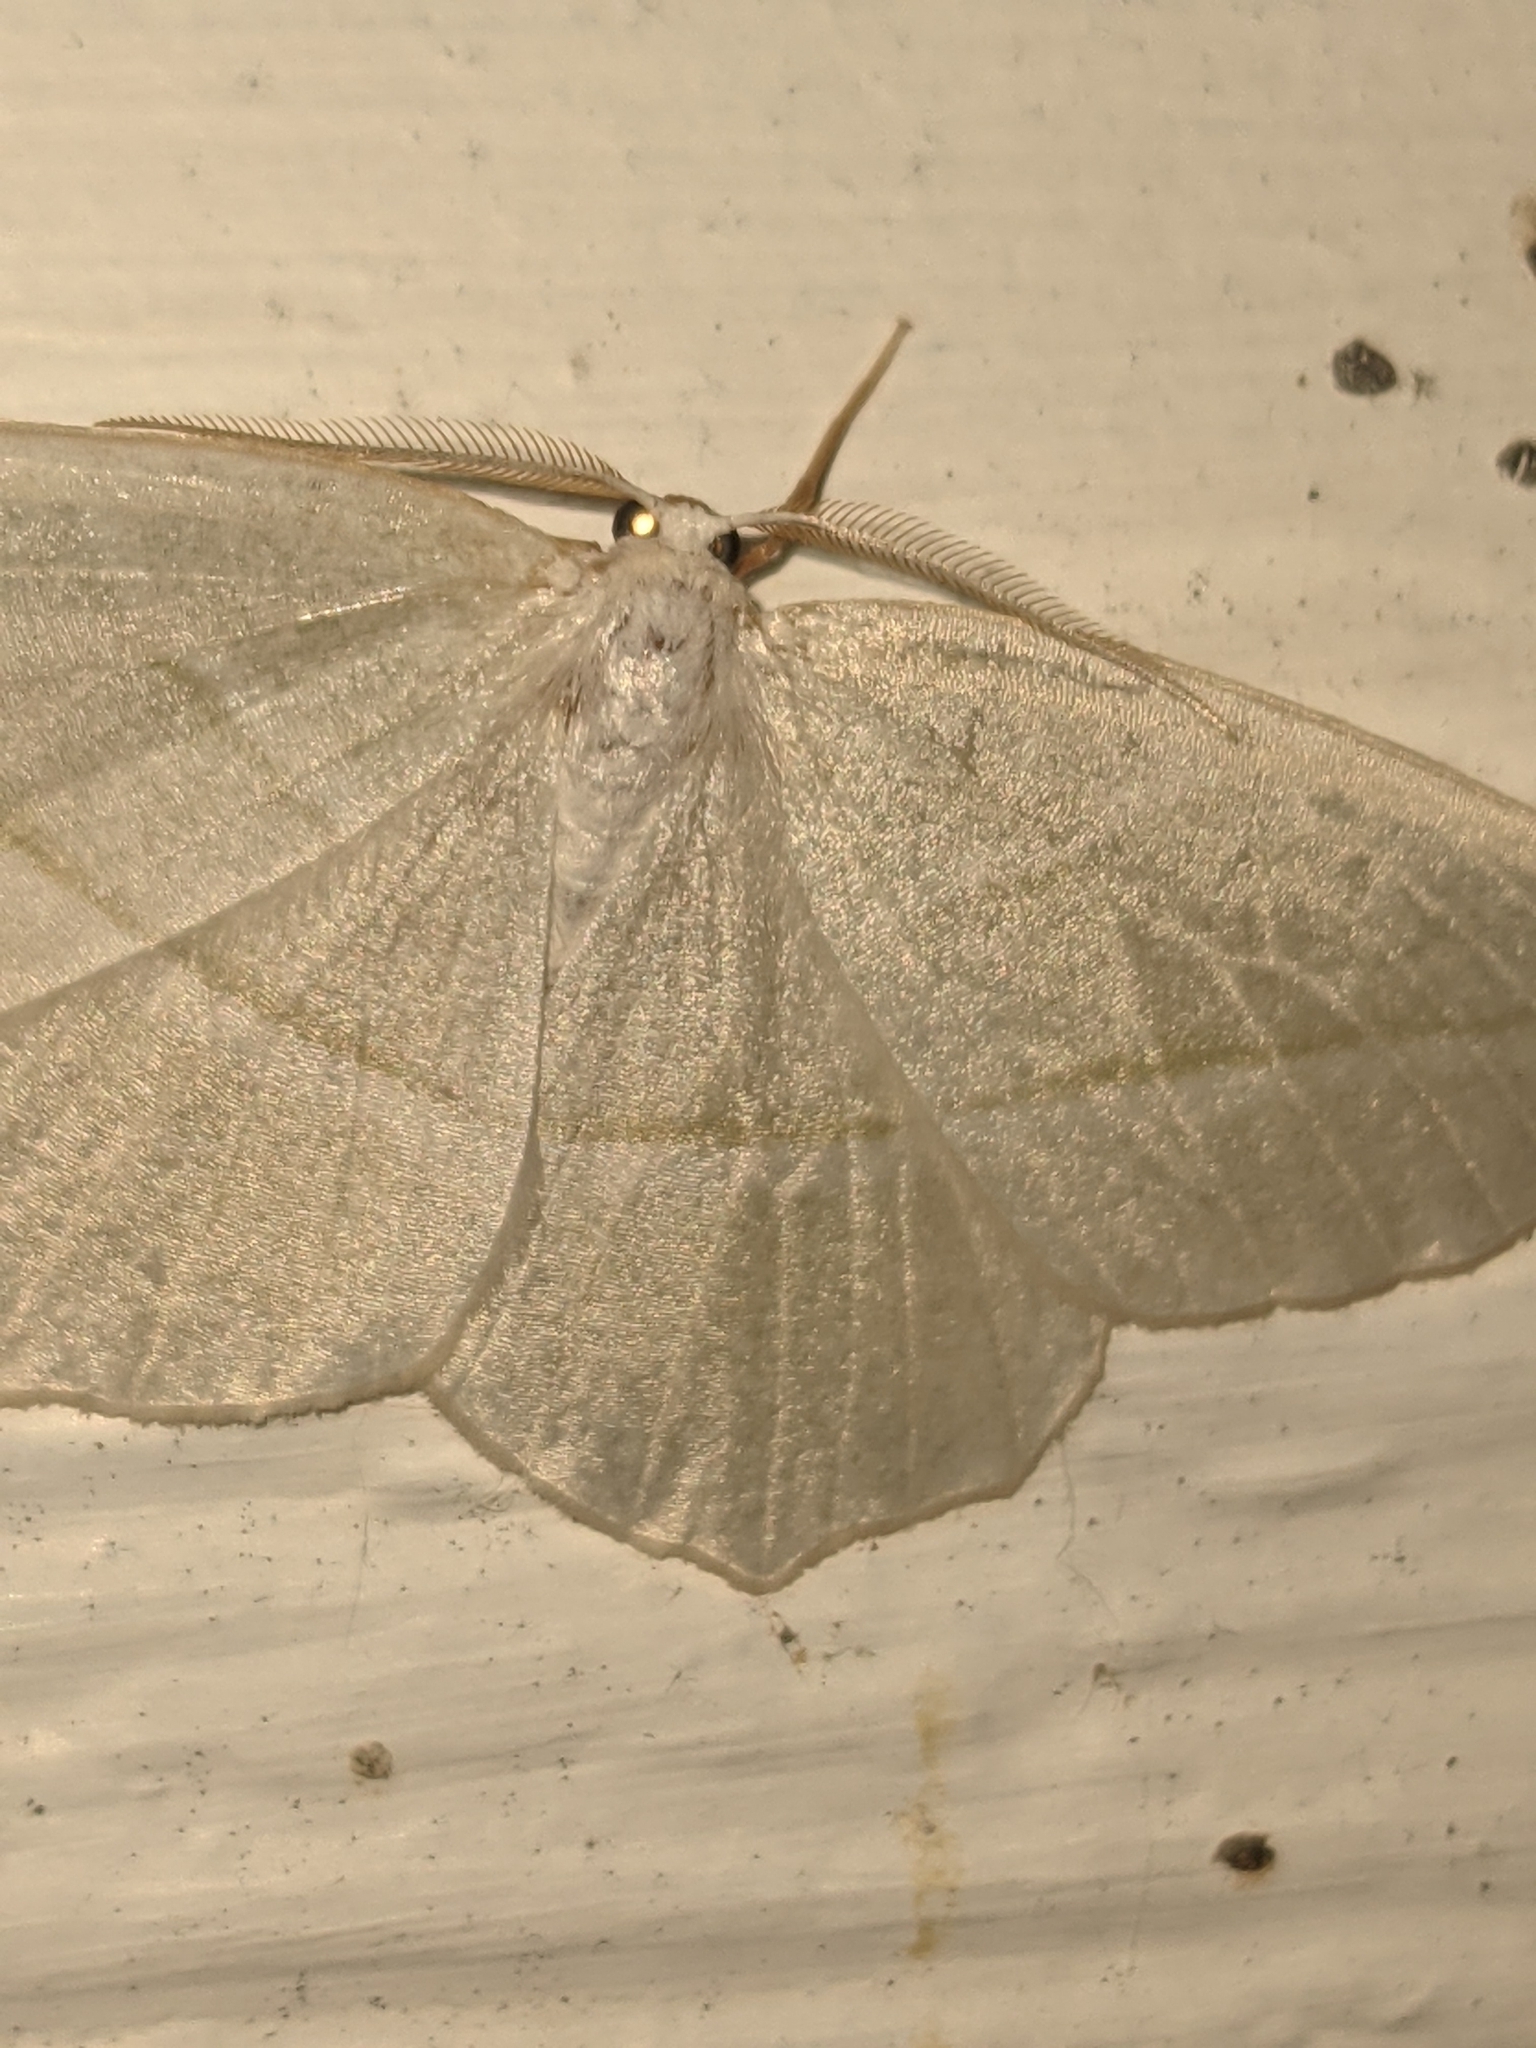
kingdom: Animalia
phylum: Arthropoda
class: Insecta
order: Lepidoptera
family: Geometridae
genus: Campaea
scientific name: Campaea perlata
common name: Fringed looper
